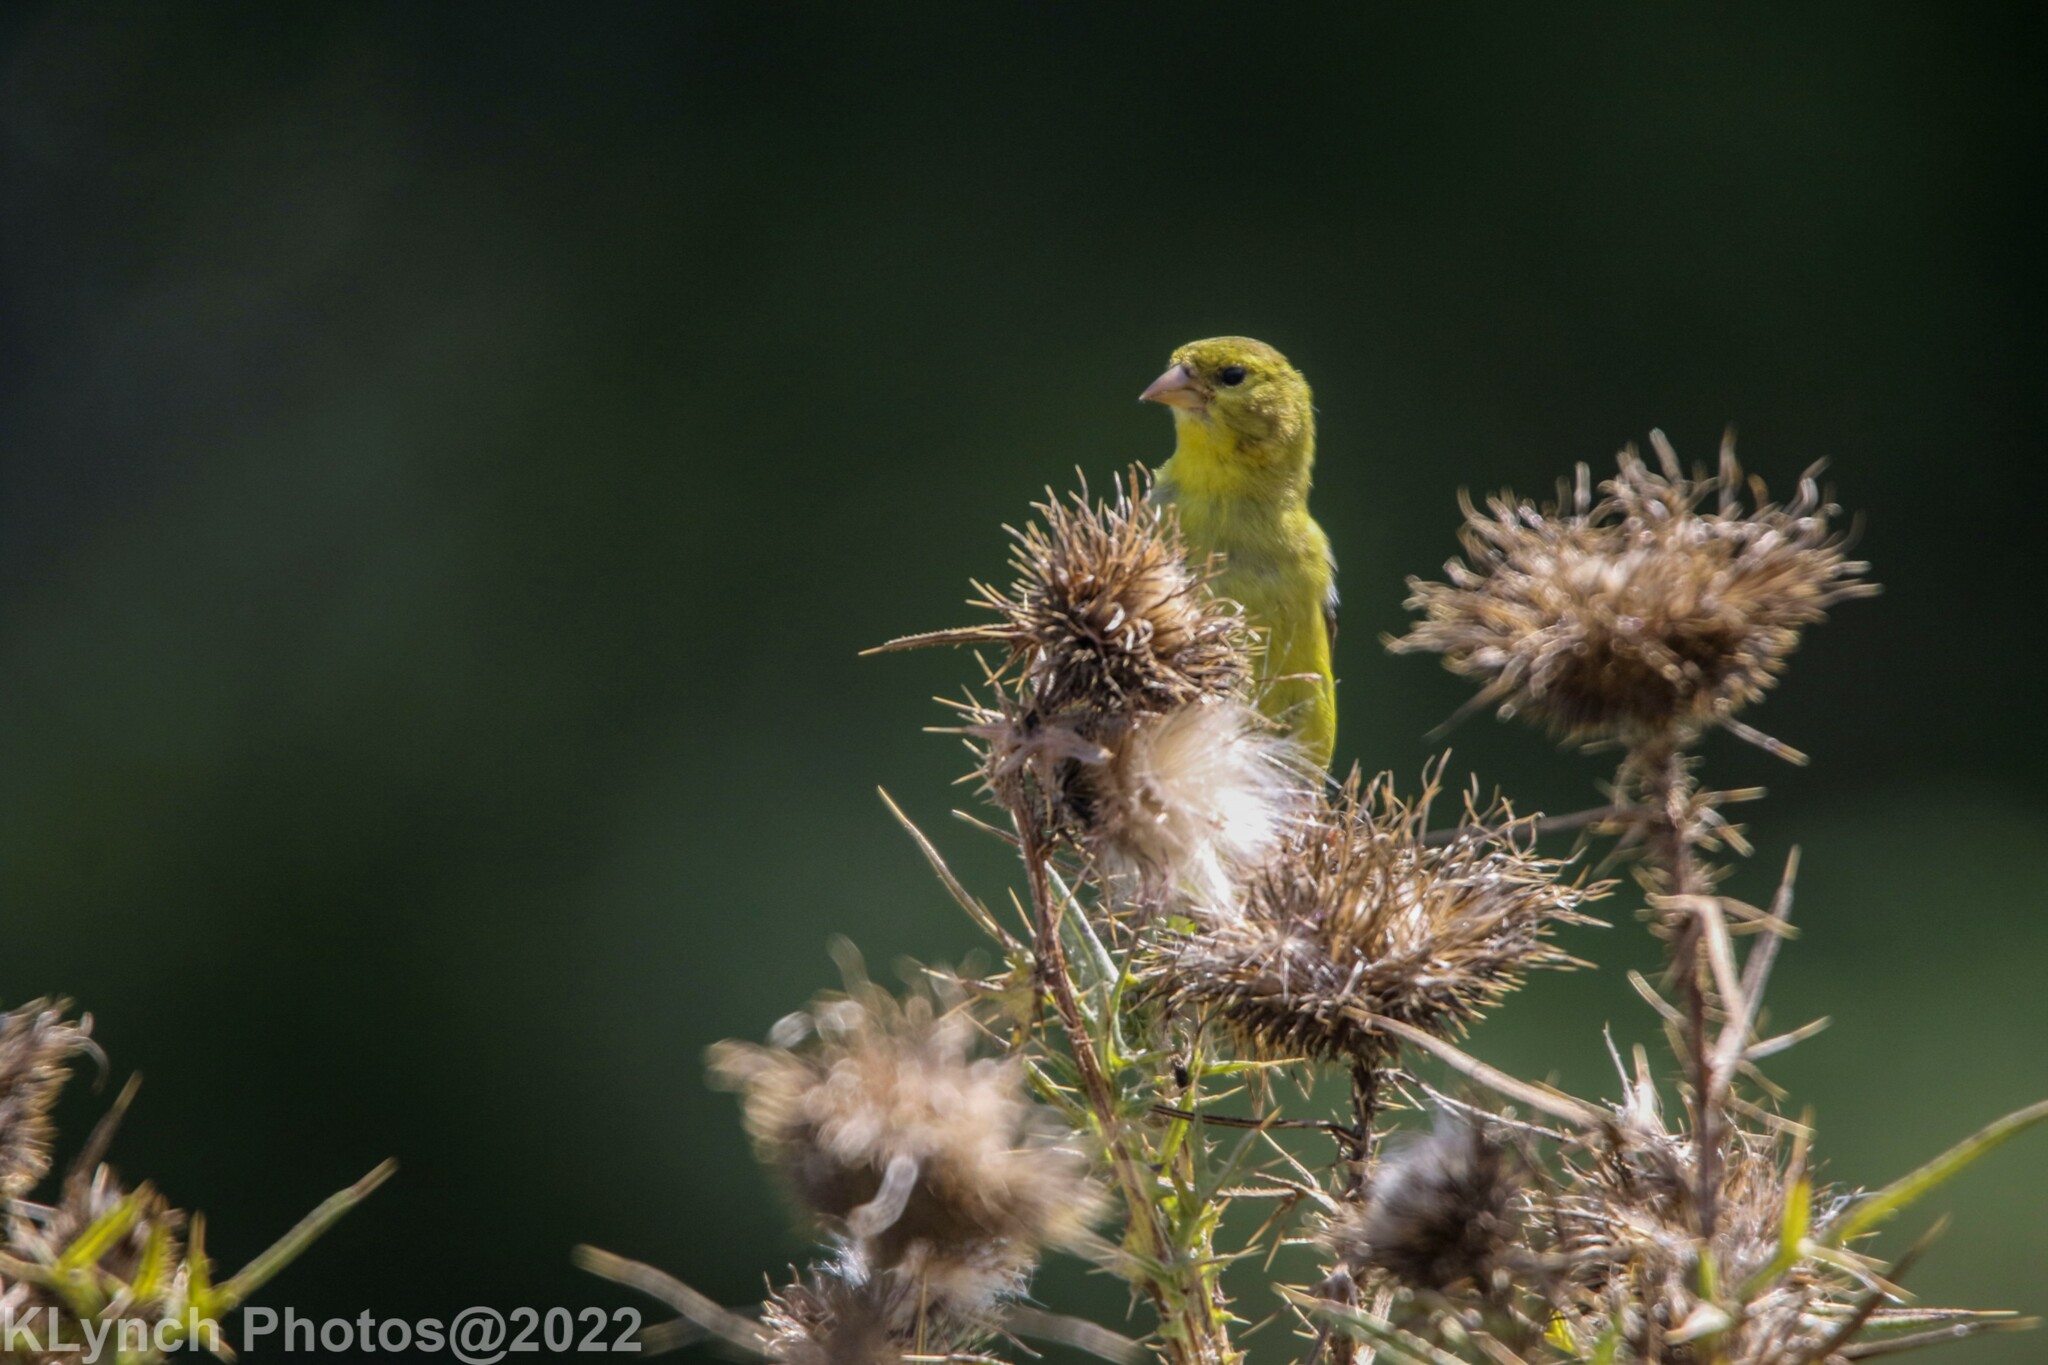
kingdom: Animalia
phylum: Chordata
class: Aves
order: Passeriformes
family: Fringillidae
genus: Spinus
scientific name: Spinus tristis
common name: American goldfinch
